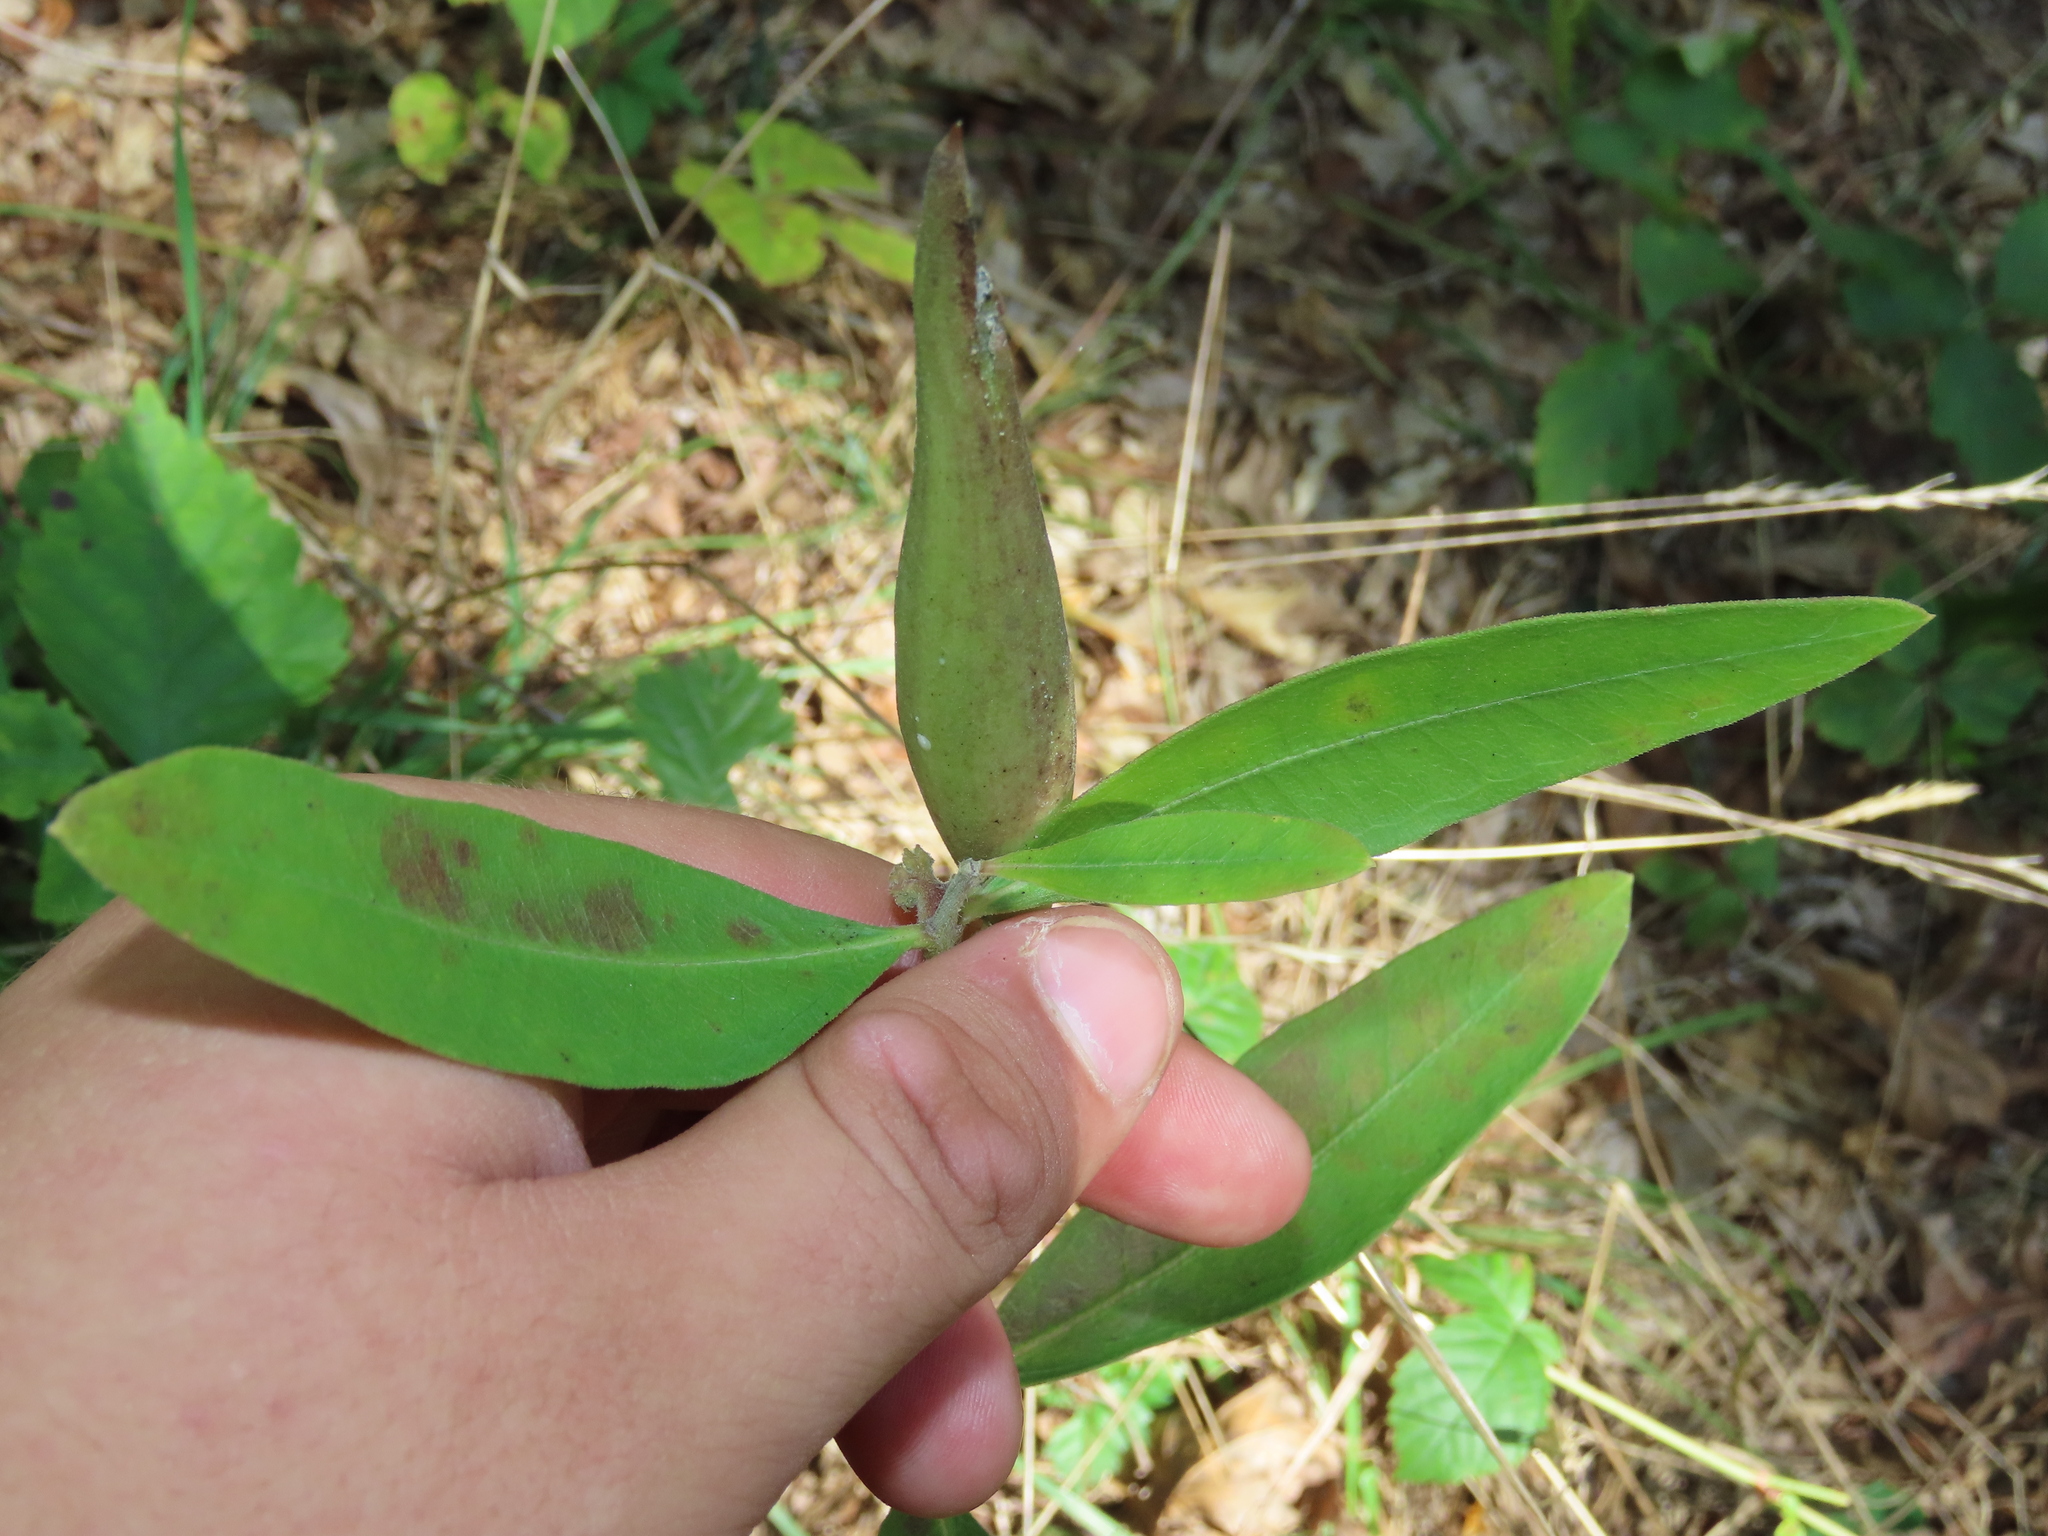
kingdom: Plantae
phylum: Tracheophyta
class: Magnoliopsida
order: Gentianales
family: Apocynaceae
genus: Asclepias
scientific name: Asclepias viridiflora
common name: Green comet milkweed
